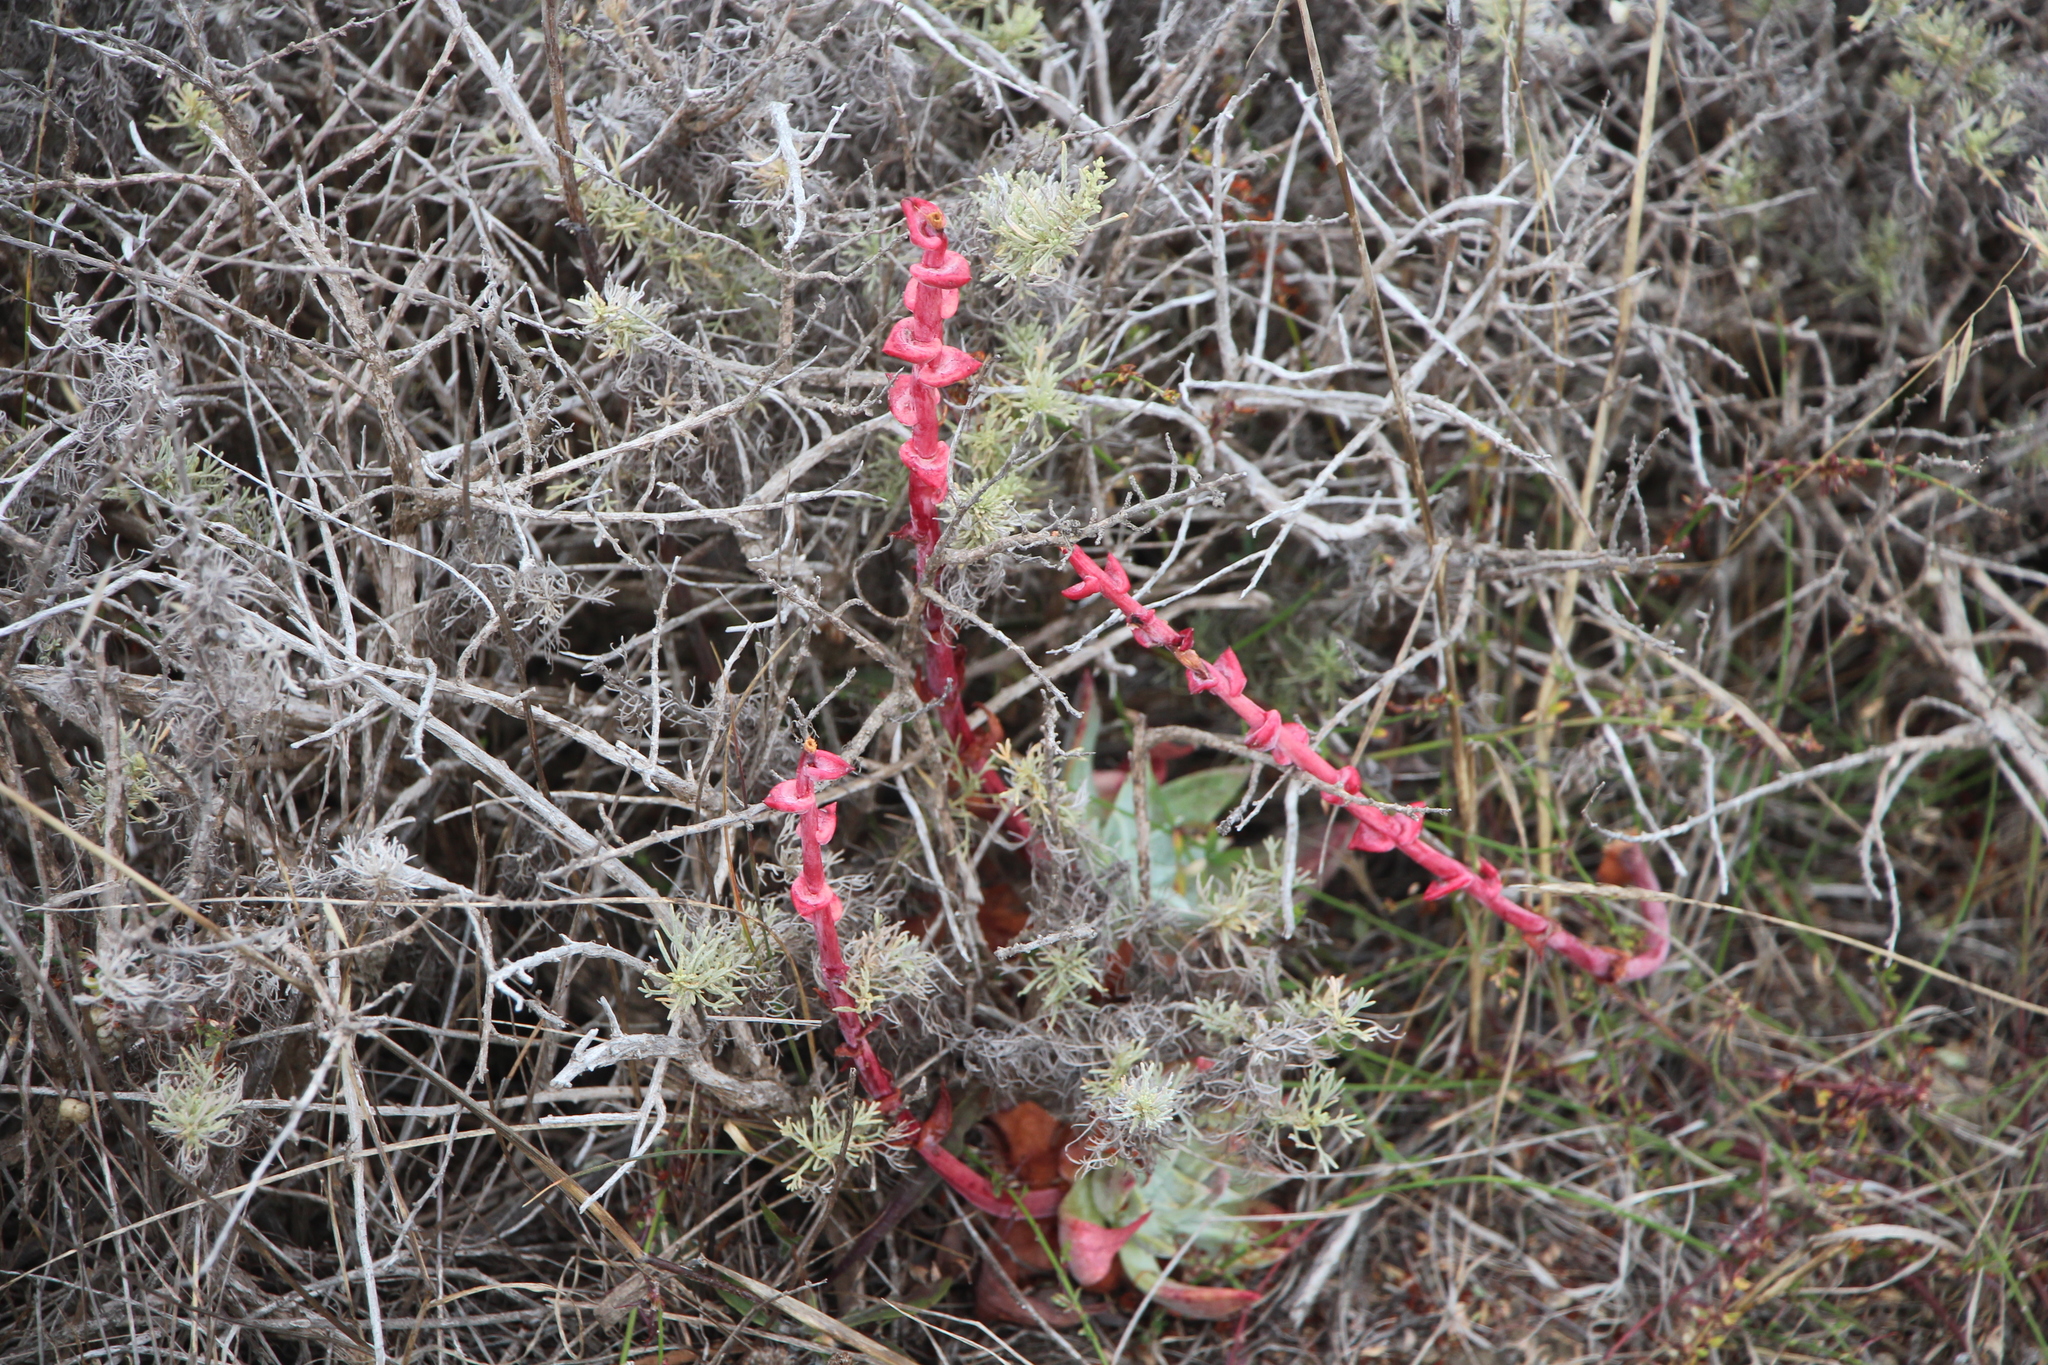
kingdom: Plantae
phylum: Tracheophyta
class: Magnoliopsida
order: Saxifragales
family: Crassulaceae
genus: Dudleya
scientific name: Dudleya farinosa
